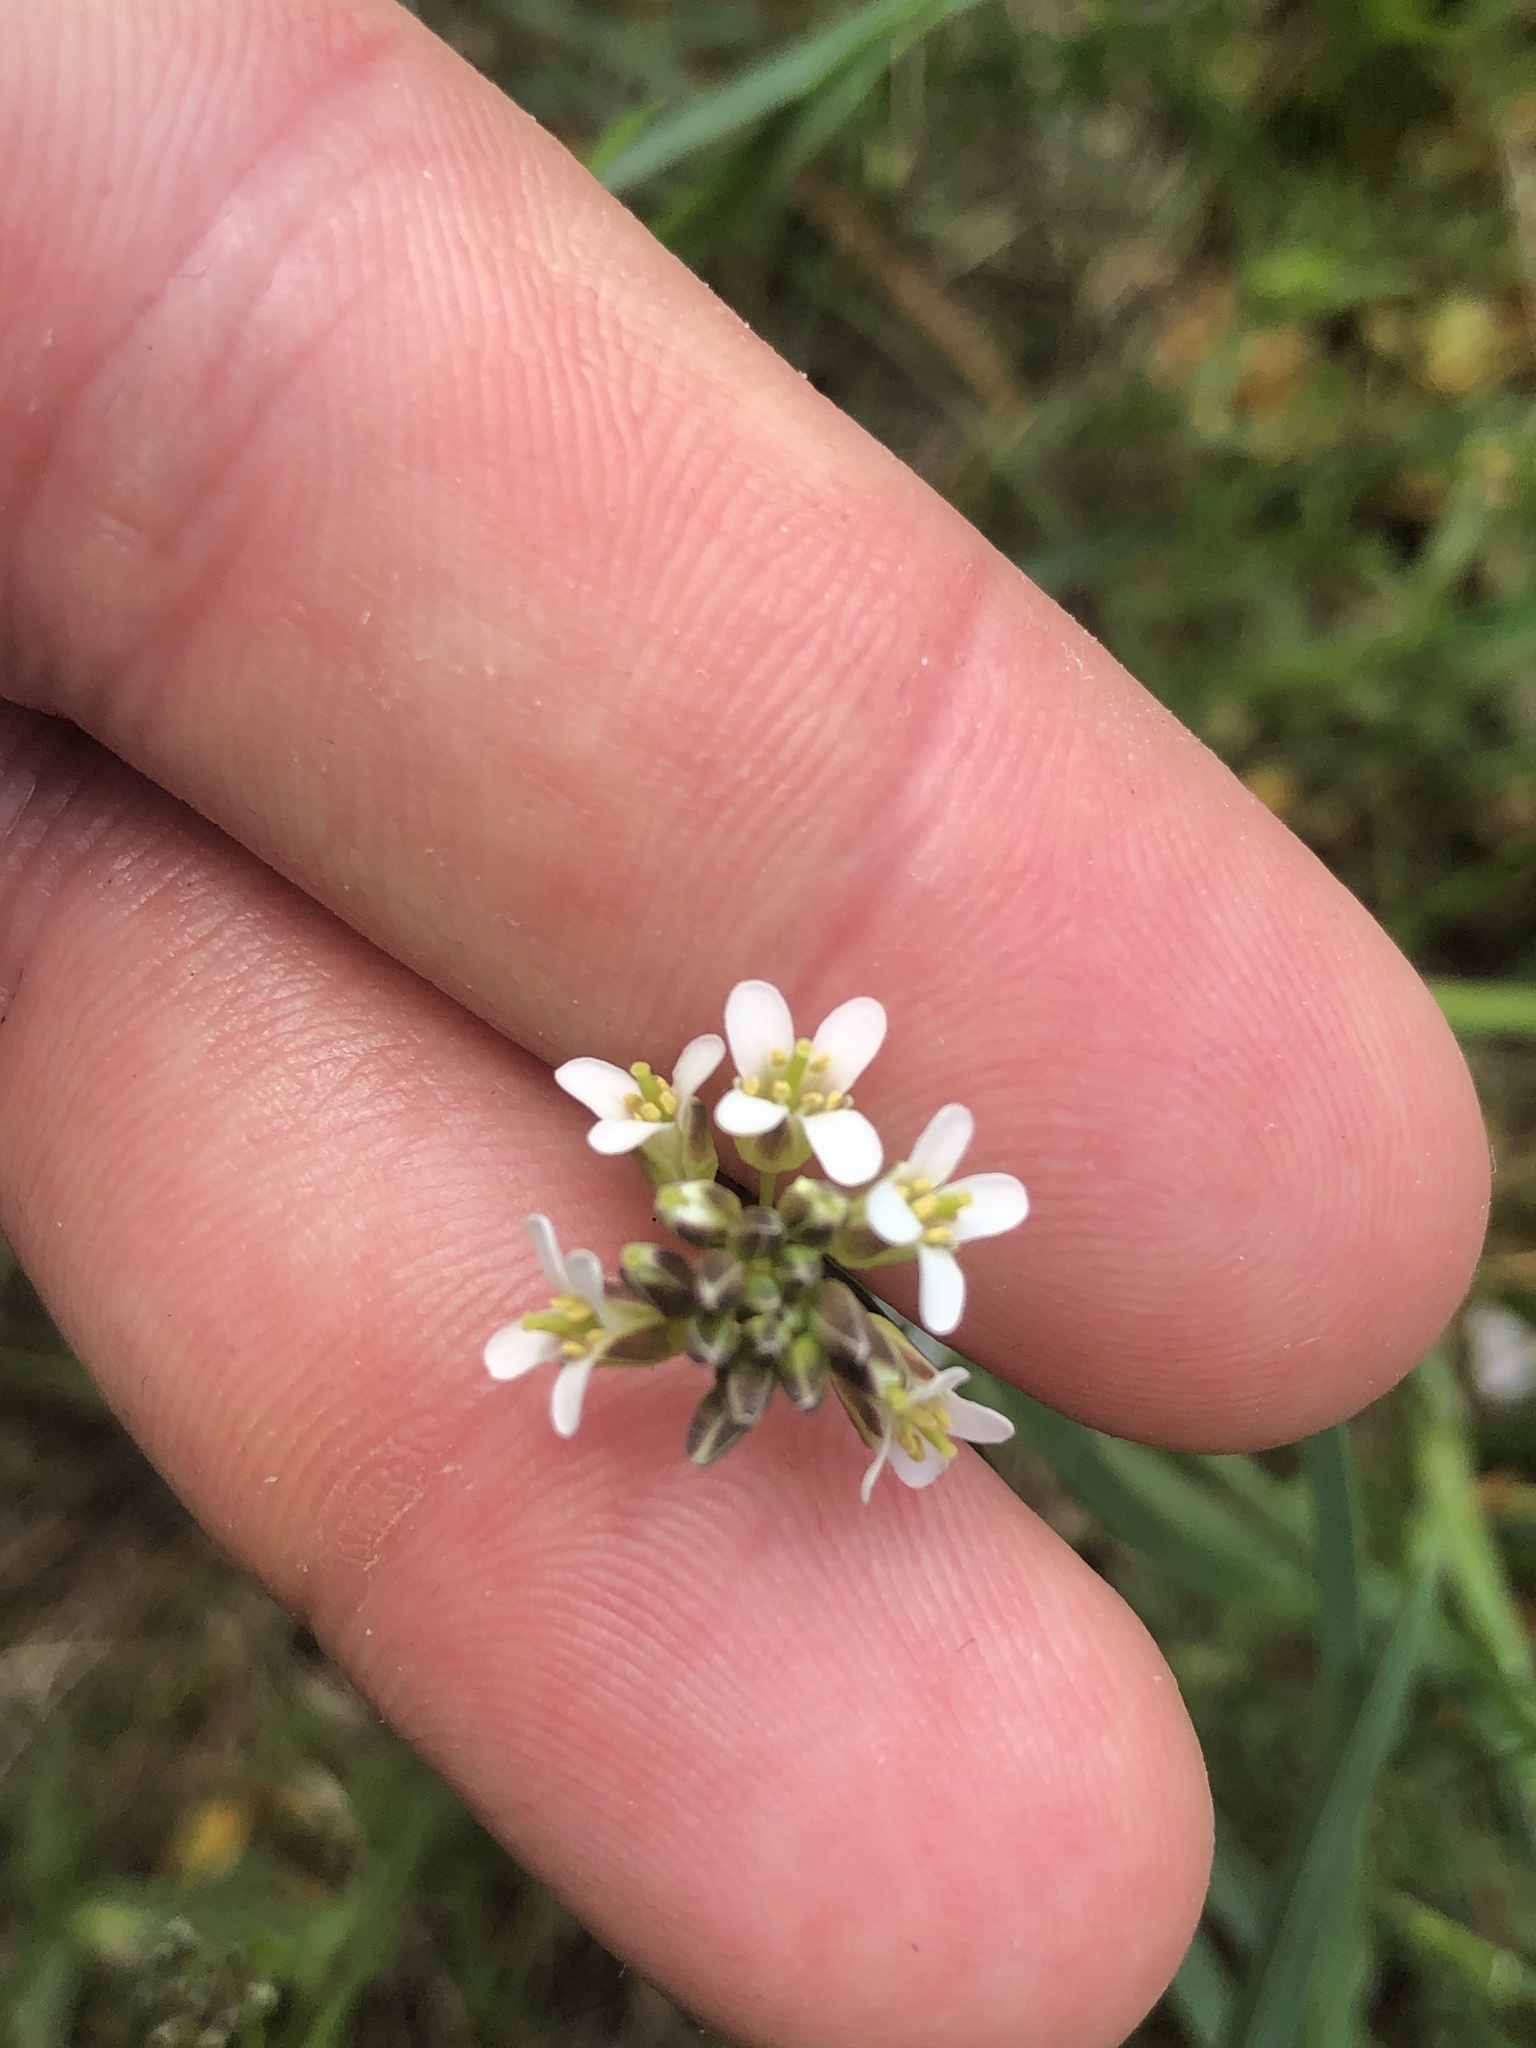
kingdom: Plantae
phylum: Tracheophyta
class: Magnoliopsida
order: Brassicales
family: Brassicaceae
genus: Arabis
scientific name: Arabis hirsuta
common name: Hairy rock-cress
